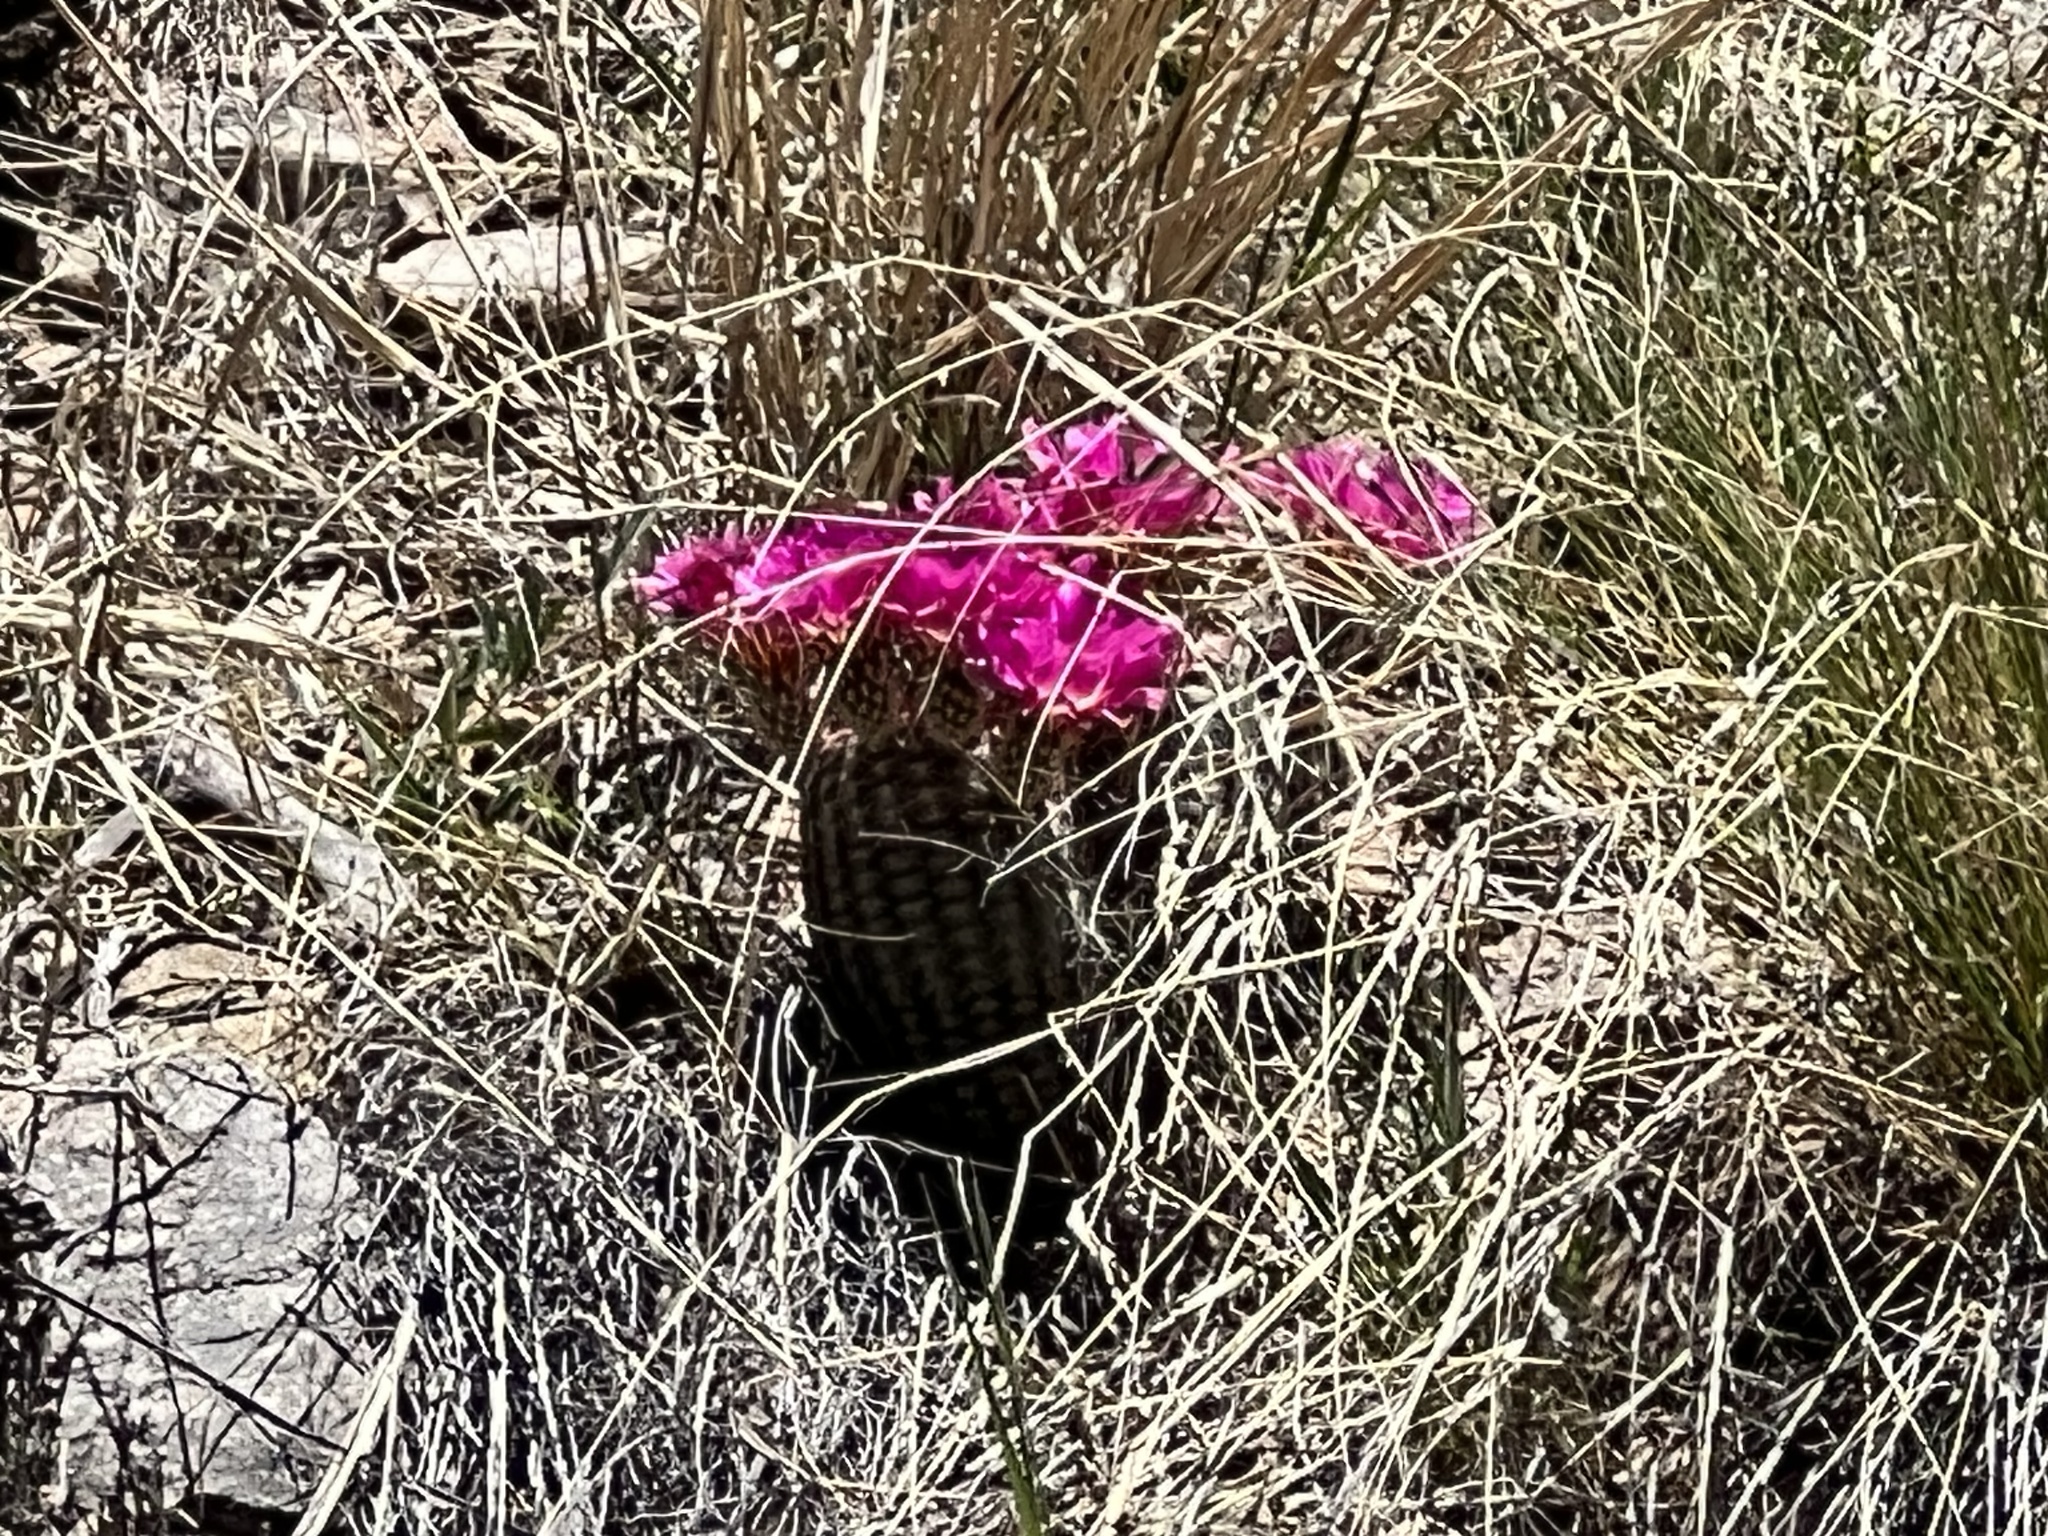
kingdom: Plantae
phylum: Tracheophyta
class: Magnoliopsida
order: Caryophyllales
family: Cactaceae
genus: Echinocereus
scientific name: Echinocereus rigidissimus
